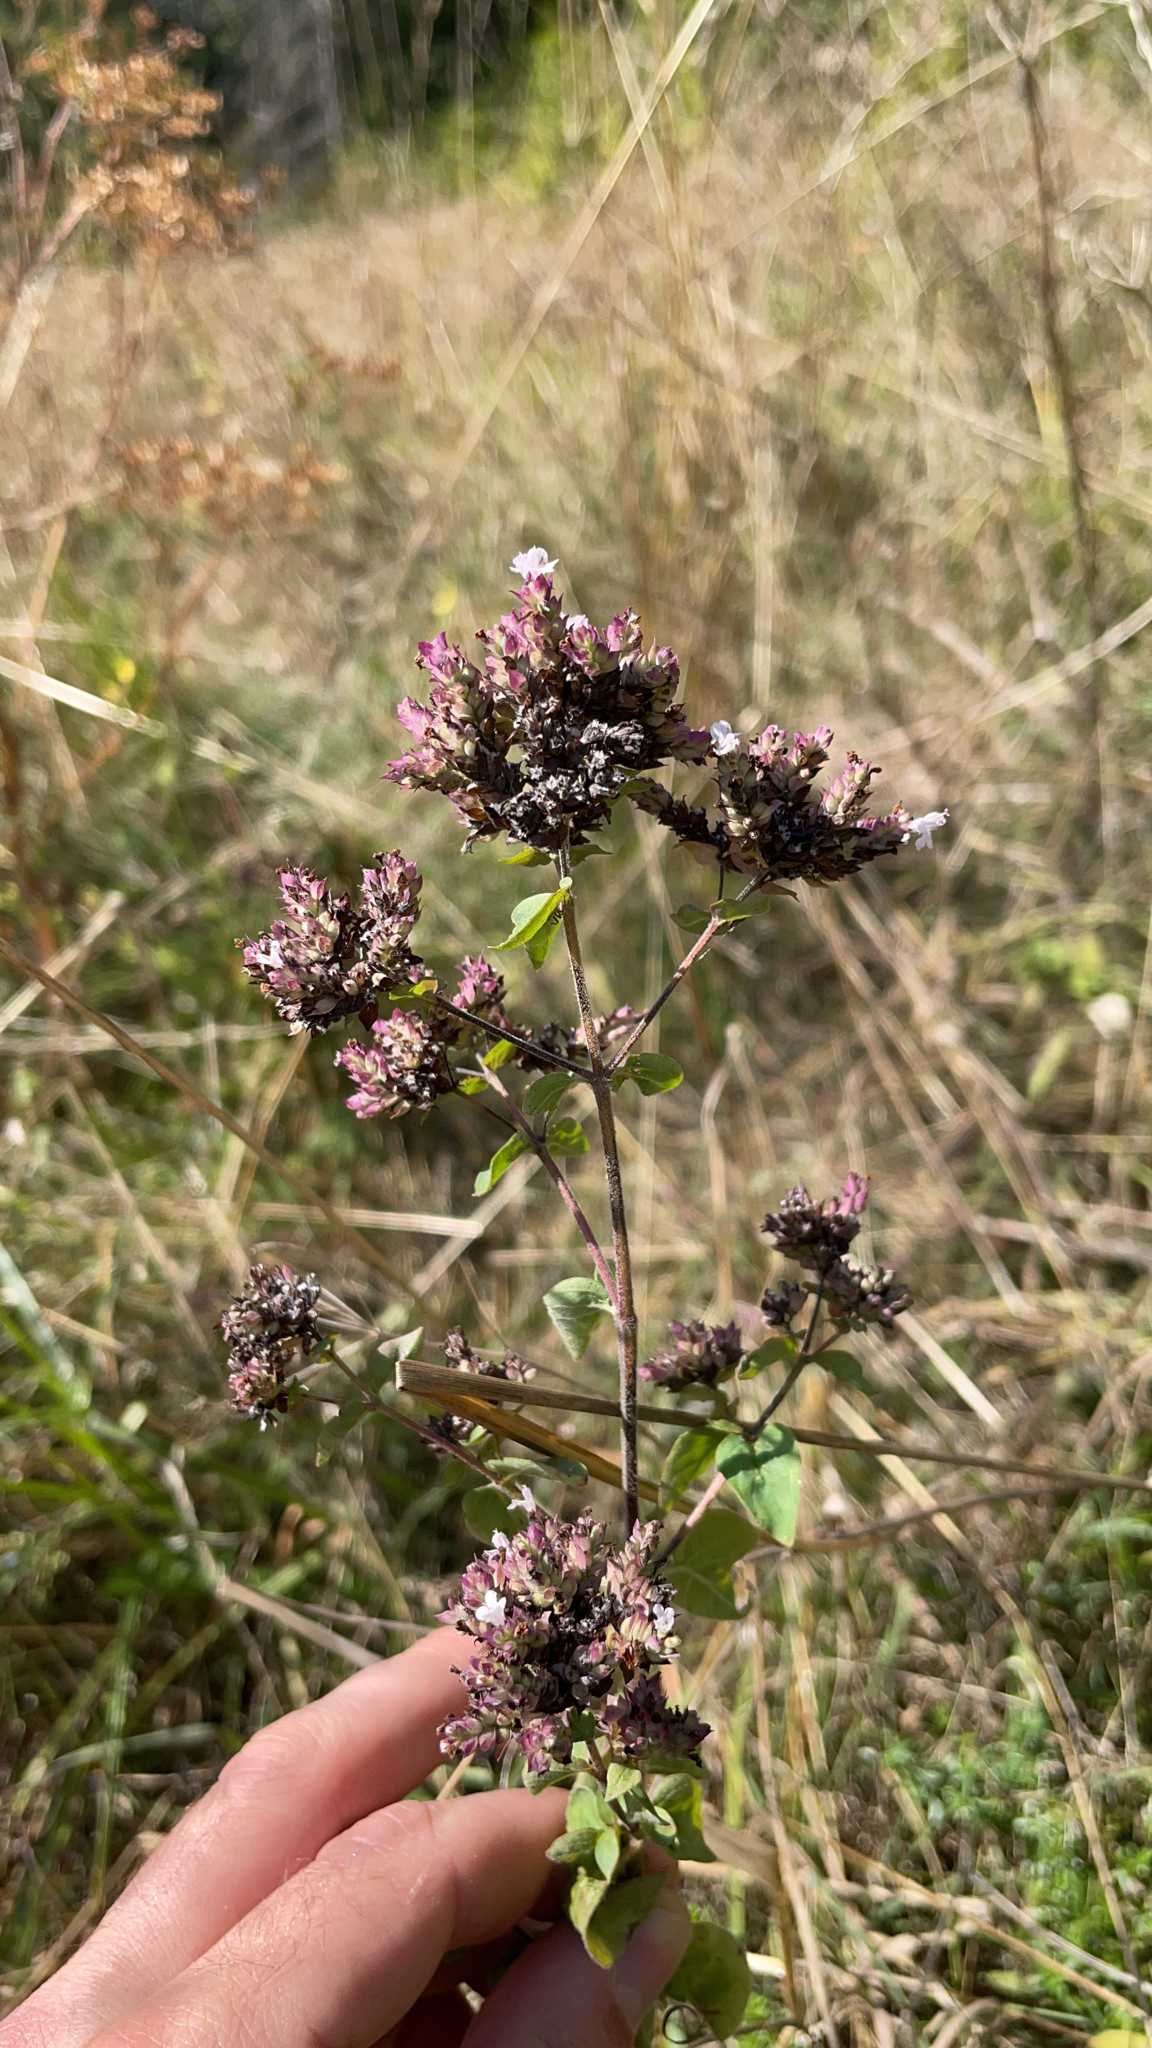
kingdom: Plantae
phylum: Tracheophyta
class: Magnoliopsida
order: Lamiales
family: Lamiaceae
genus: Origanum
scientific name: Origanum vulgare
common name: Wild marjoram
